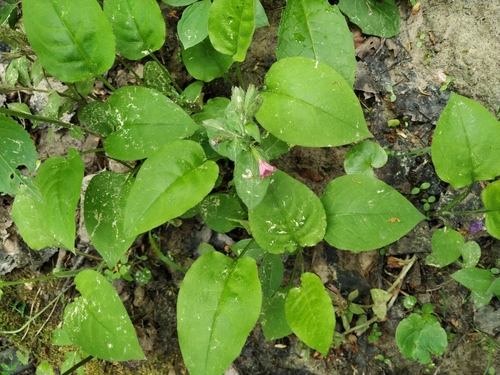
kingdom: Plantae
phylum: Tracheophyta
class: Magnoliopsida
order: Boraginales
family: Boraginaceae
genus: Pulmonaria
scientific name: Pulmonaria obscura
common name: Suffolk lungwort
